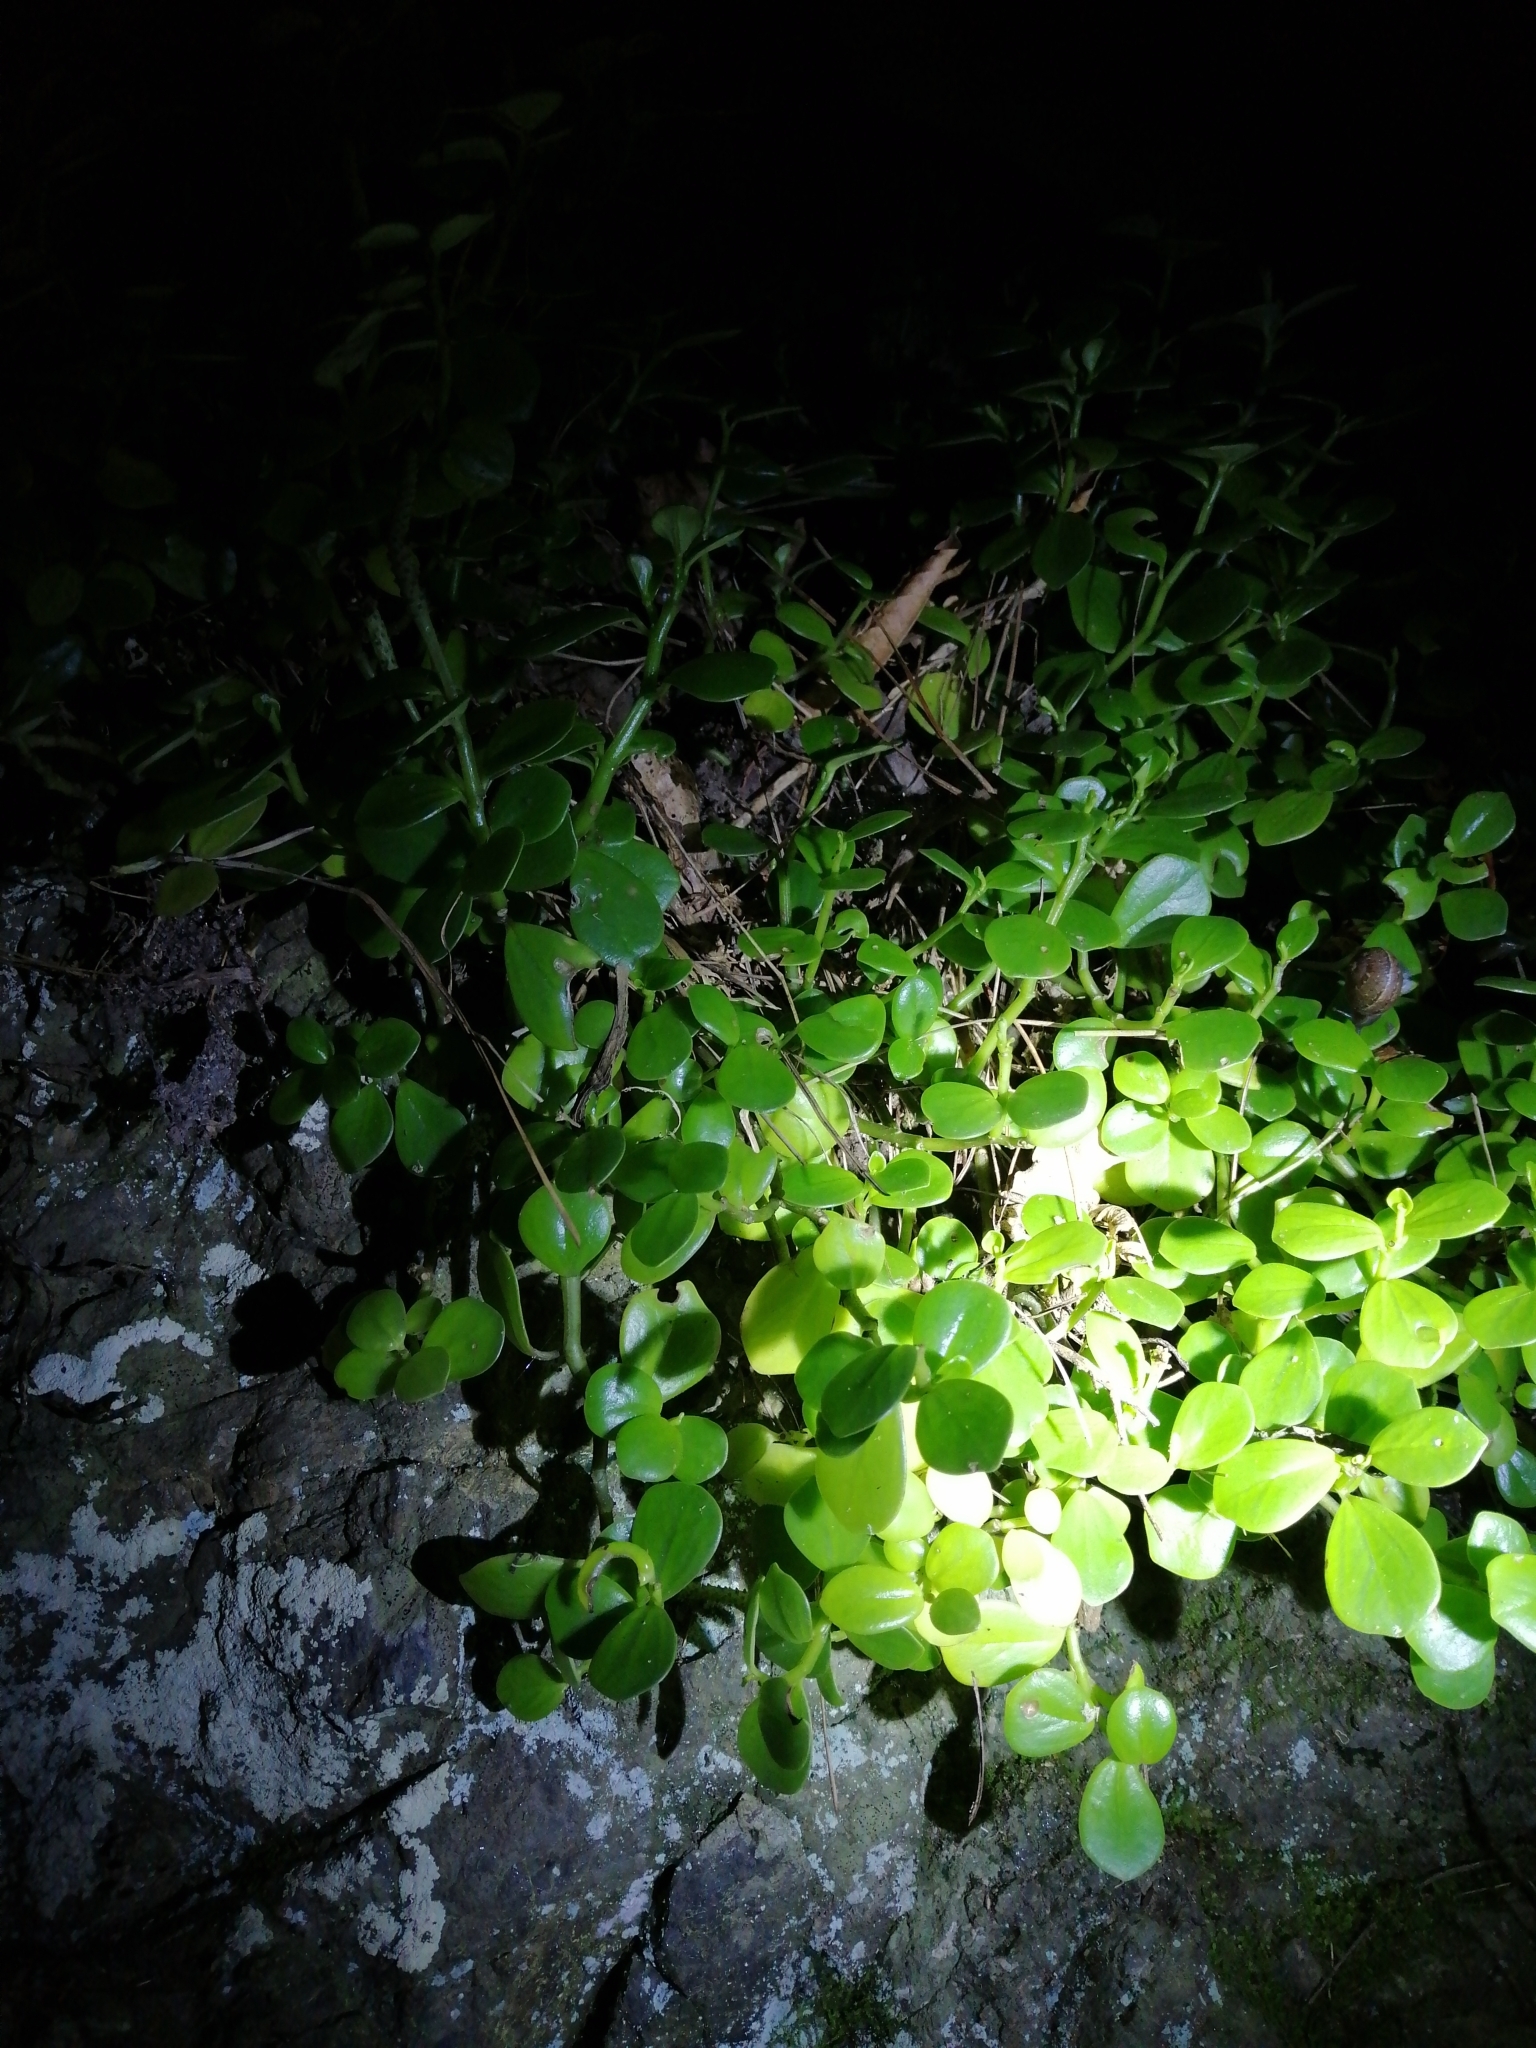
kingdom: Plantae
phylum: Tracheophyta
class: Magnoliopsida
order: Piperales
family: Piperaceae
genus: Peperomia
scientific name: Peperomia urvilleana
